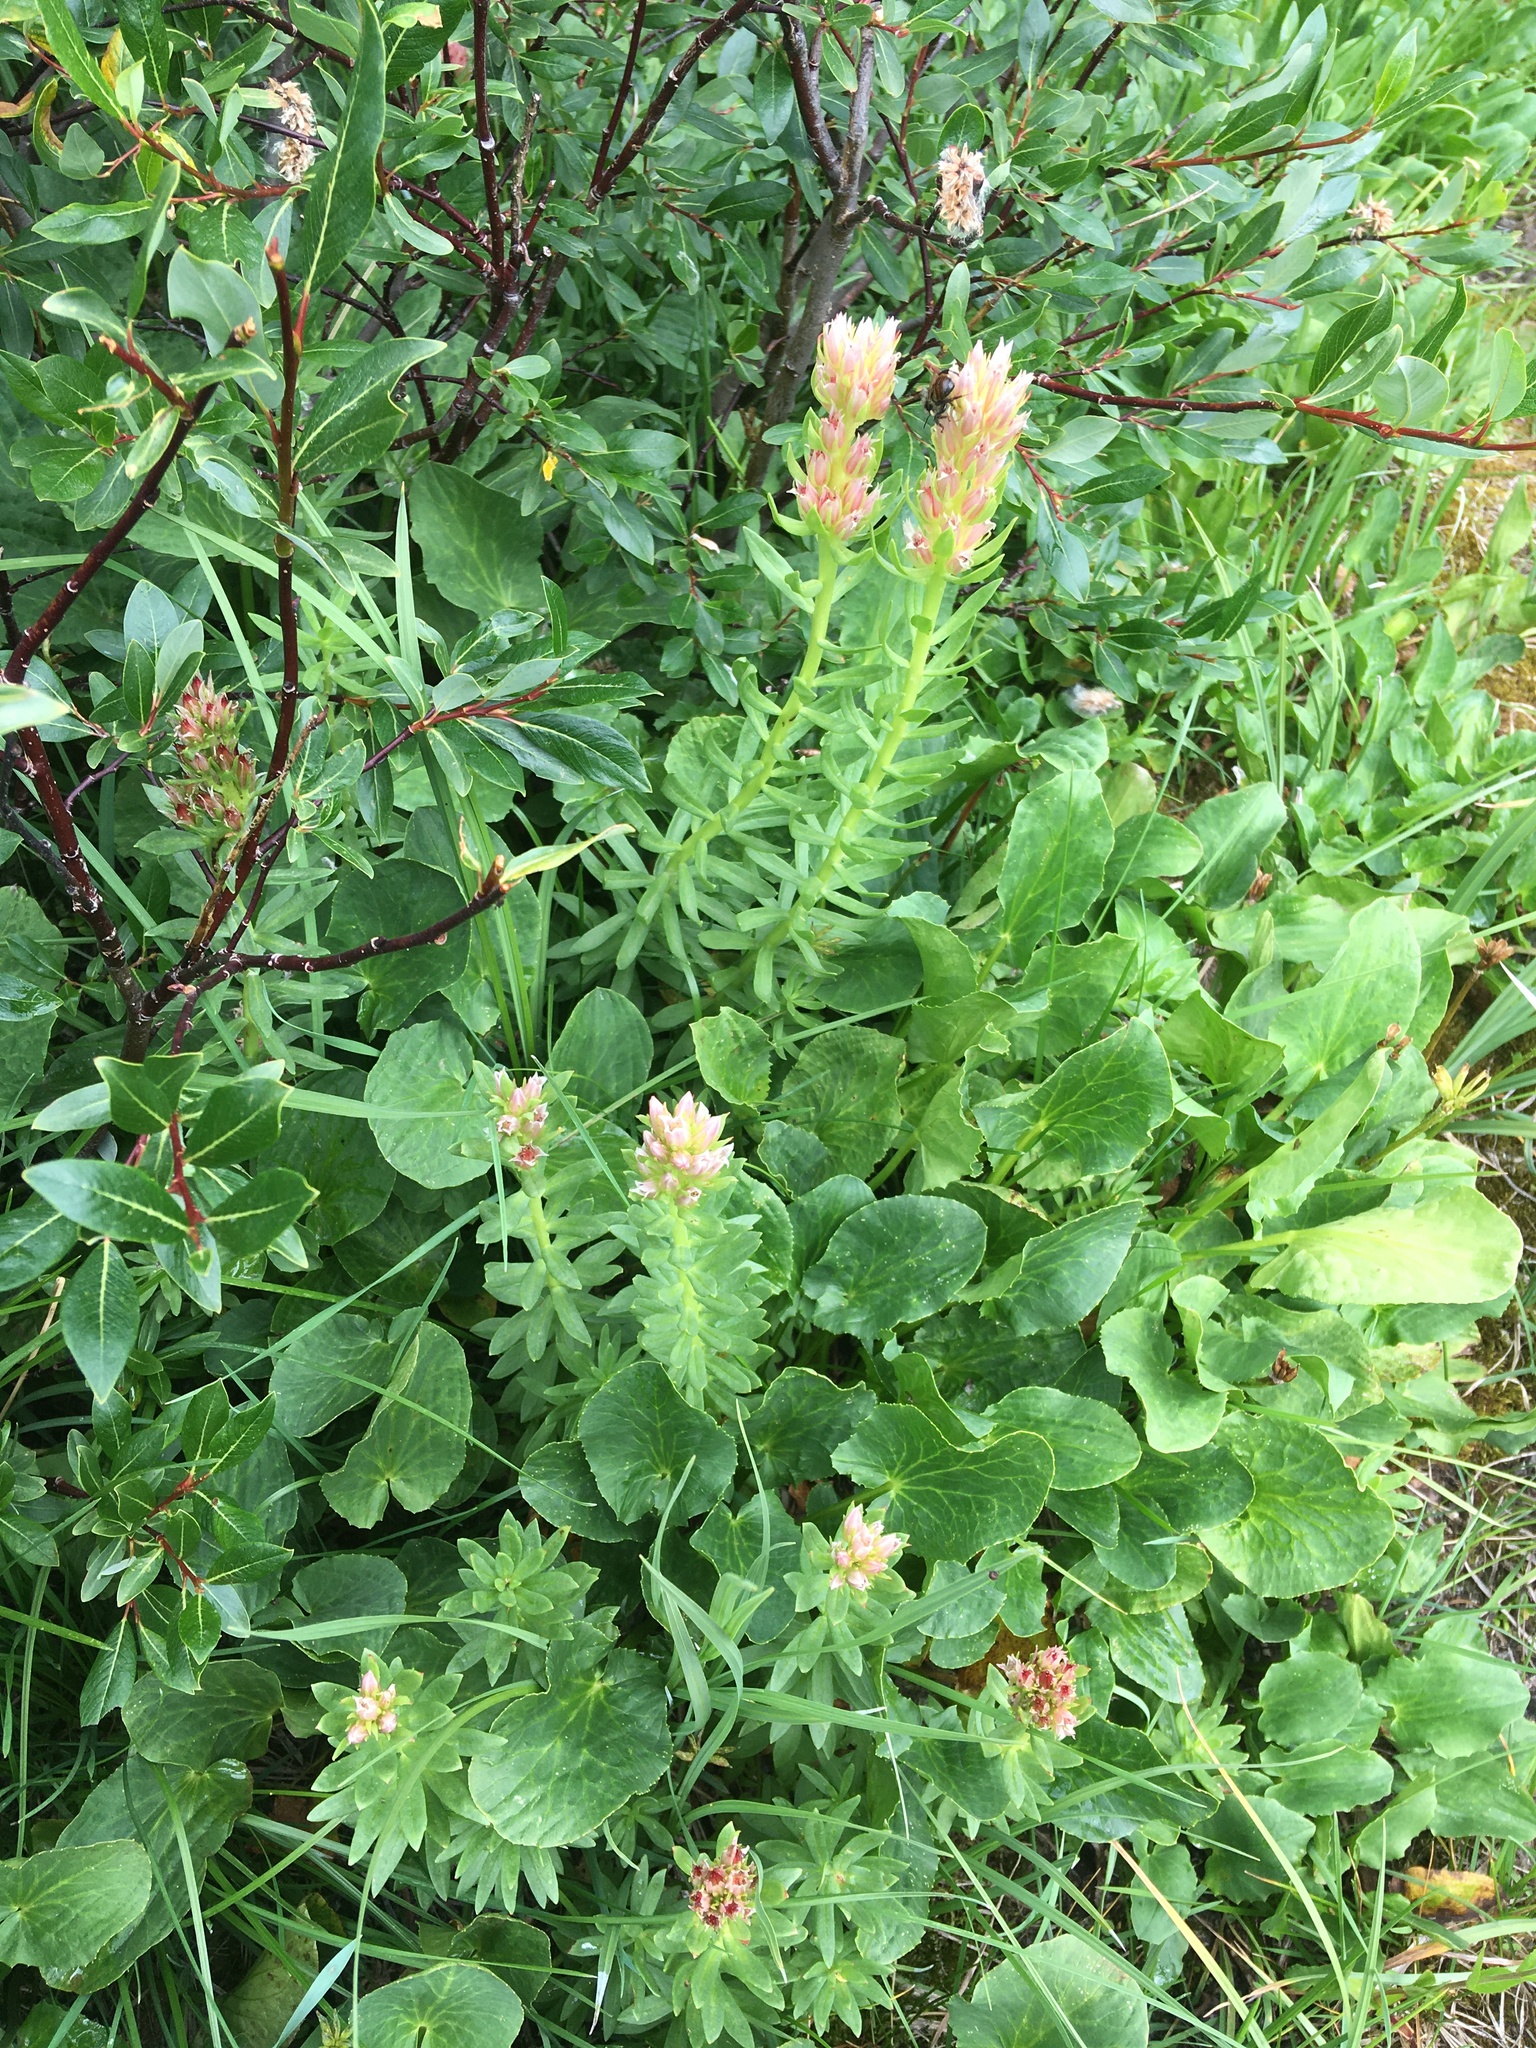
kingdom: Plantae
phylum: Tracheophyta
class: Magnoliopsida
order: Saxifragales
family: Crassulaceae
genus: Rhodiola
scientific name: Rhodiola rhodantha
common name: Red orpine
